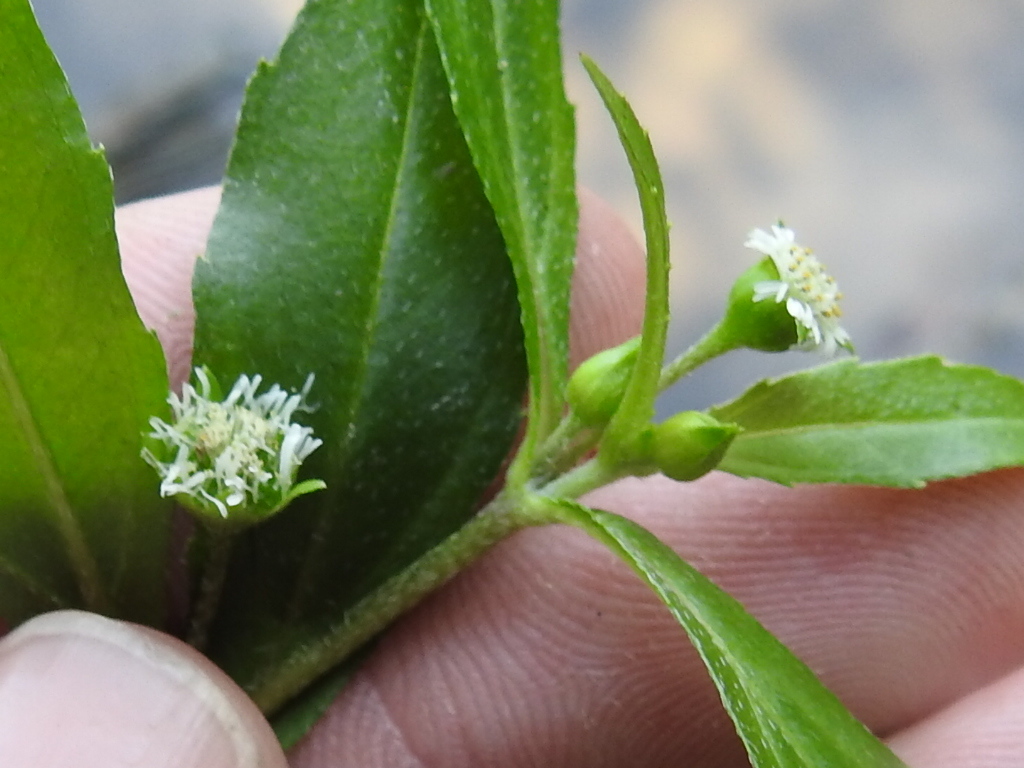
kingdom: Plantae
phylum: Tracheophyta
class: Magnoliopsida
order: Asterales
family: Asteraceae
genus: Eclipta
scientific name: Eclipta prostrata
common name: False daisy
